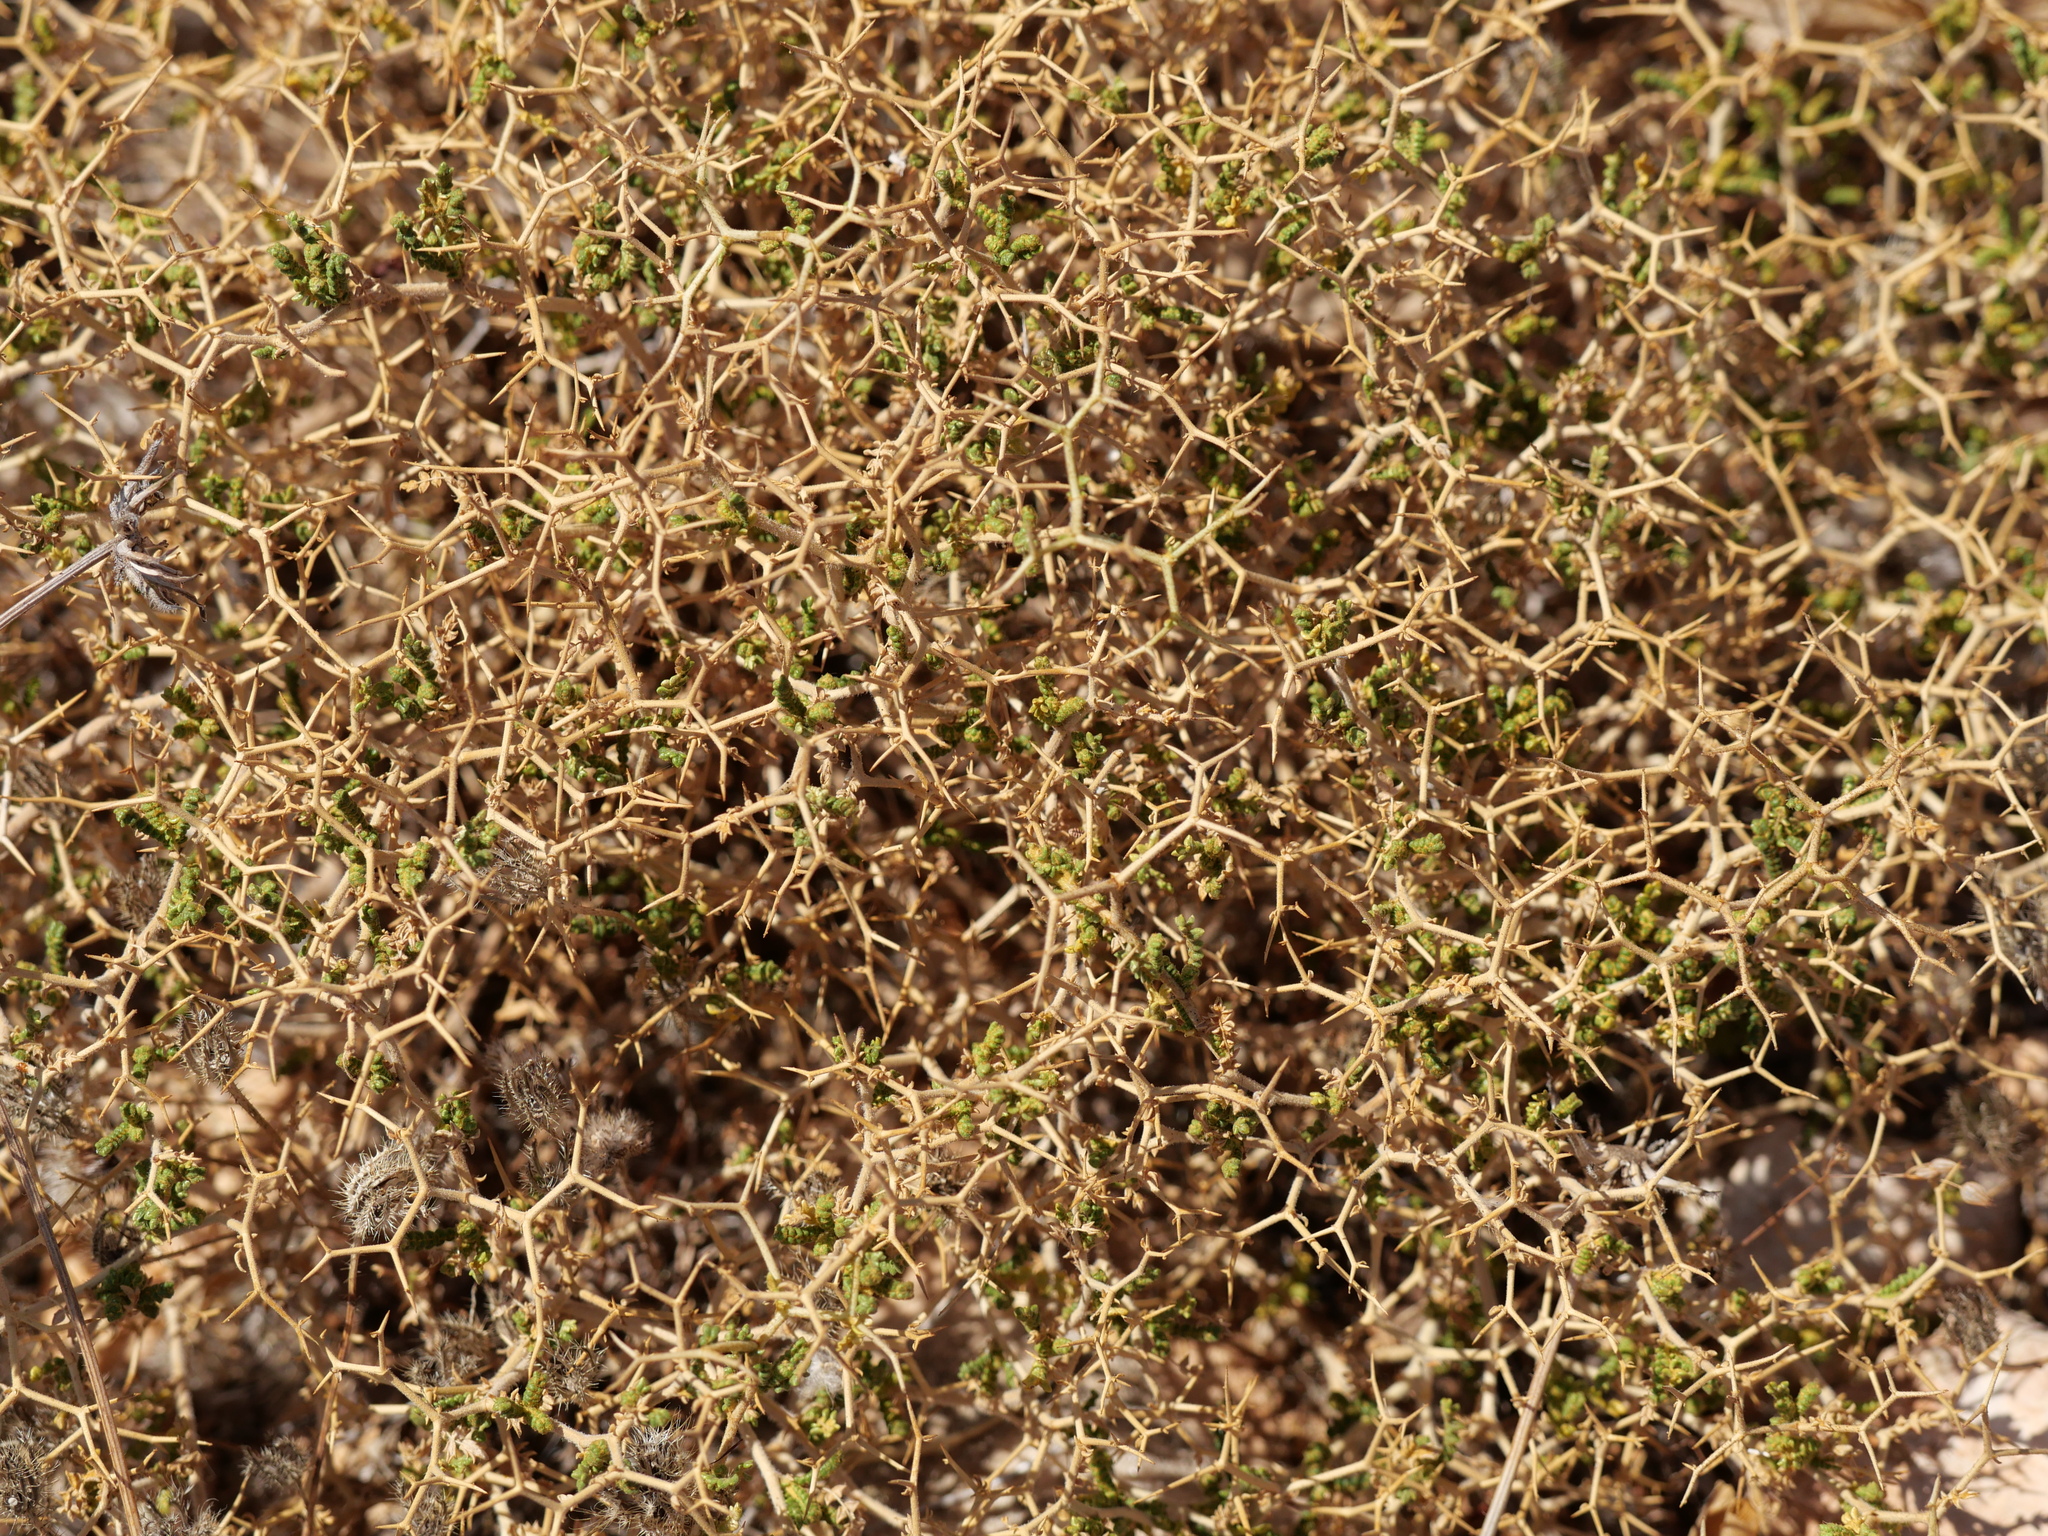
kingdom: Plantae
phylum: Tracheophyta
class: Magnoliopsida
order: Rosales
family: Rosaceae
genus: Sarcopoterium
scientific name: Sarcopoterium spinosum
